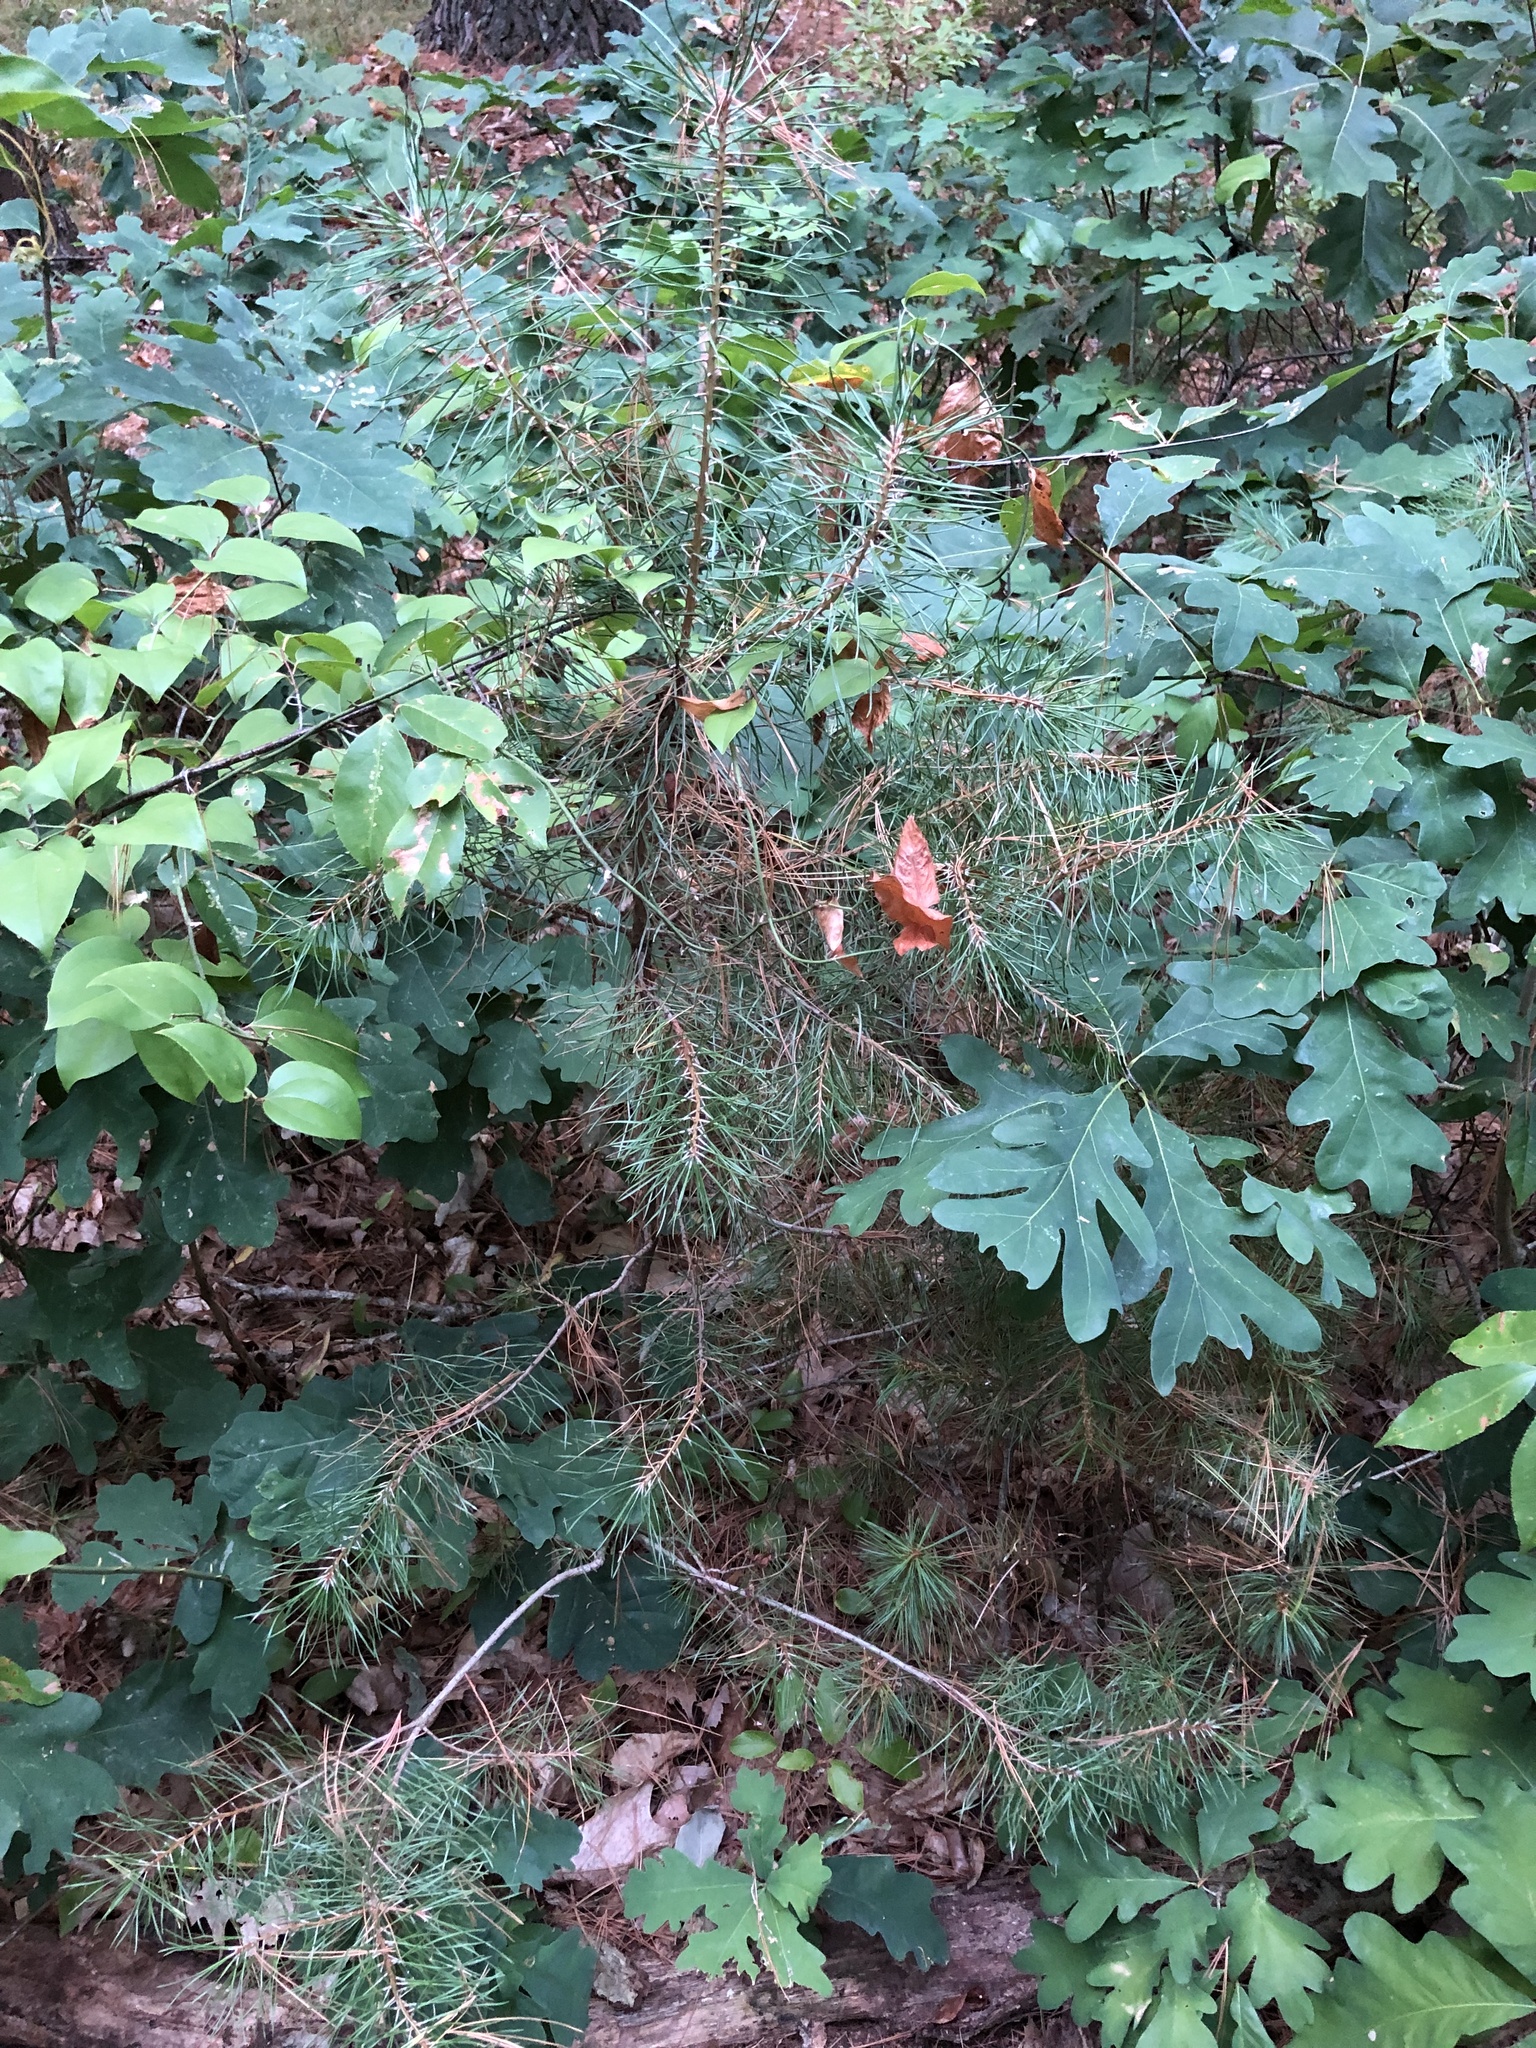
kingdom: Plantae
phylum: Tracheophyta
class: Pinopsida
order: Pinales
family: Pinaceae
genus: Pinus
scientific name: Pinus resinosa
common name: Norway pine
